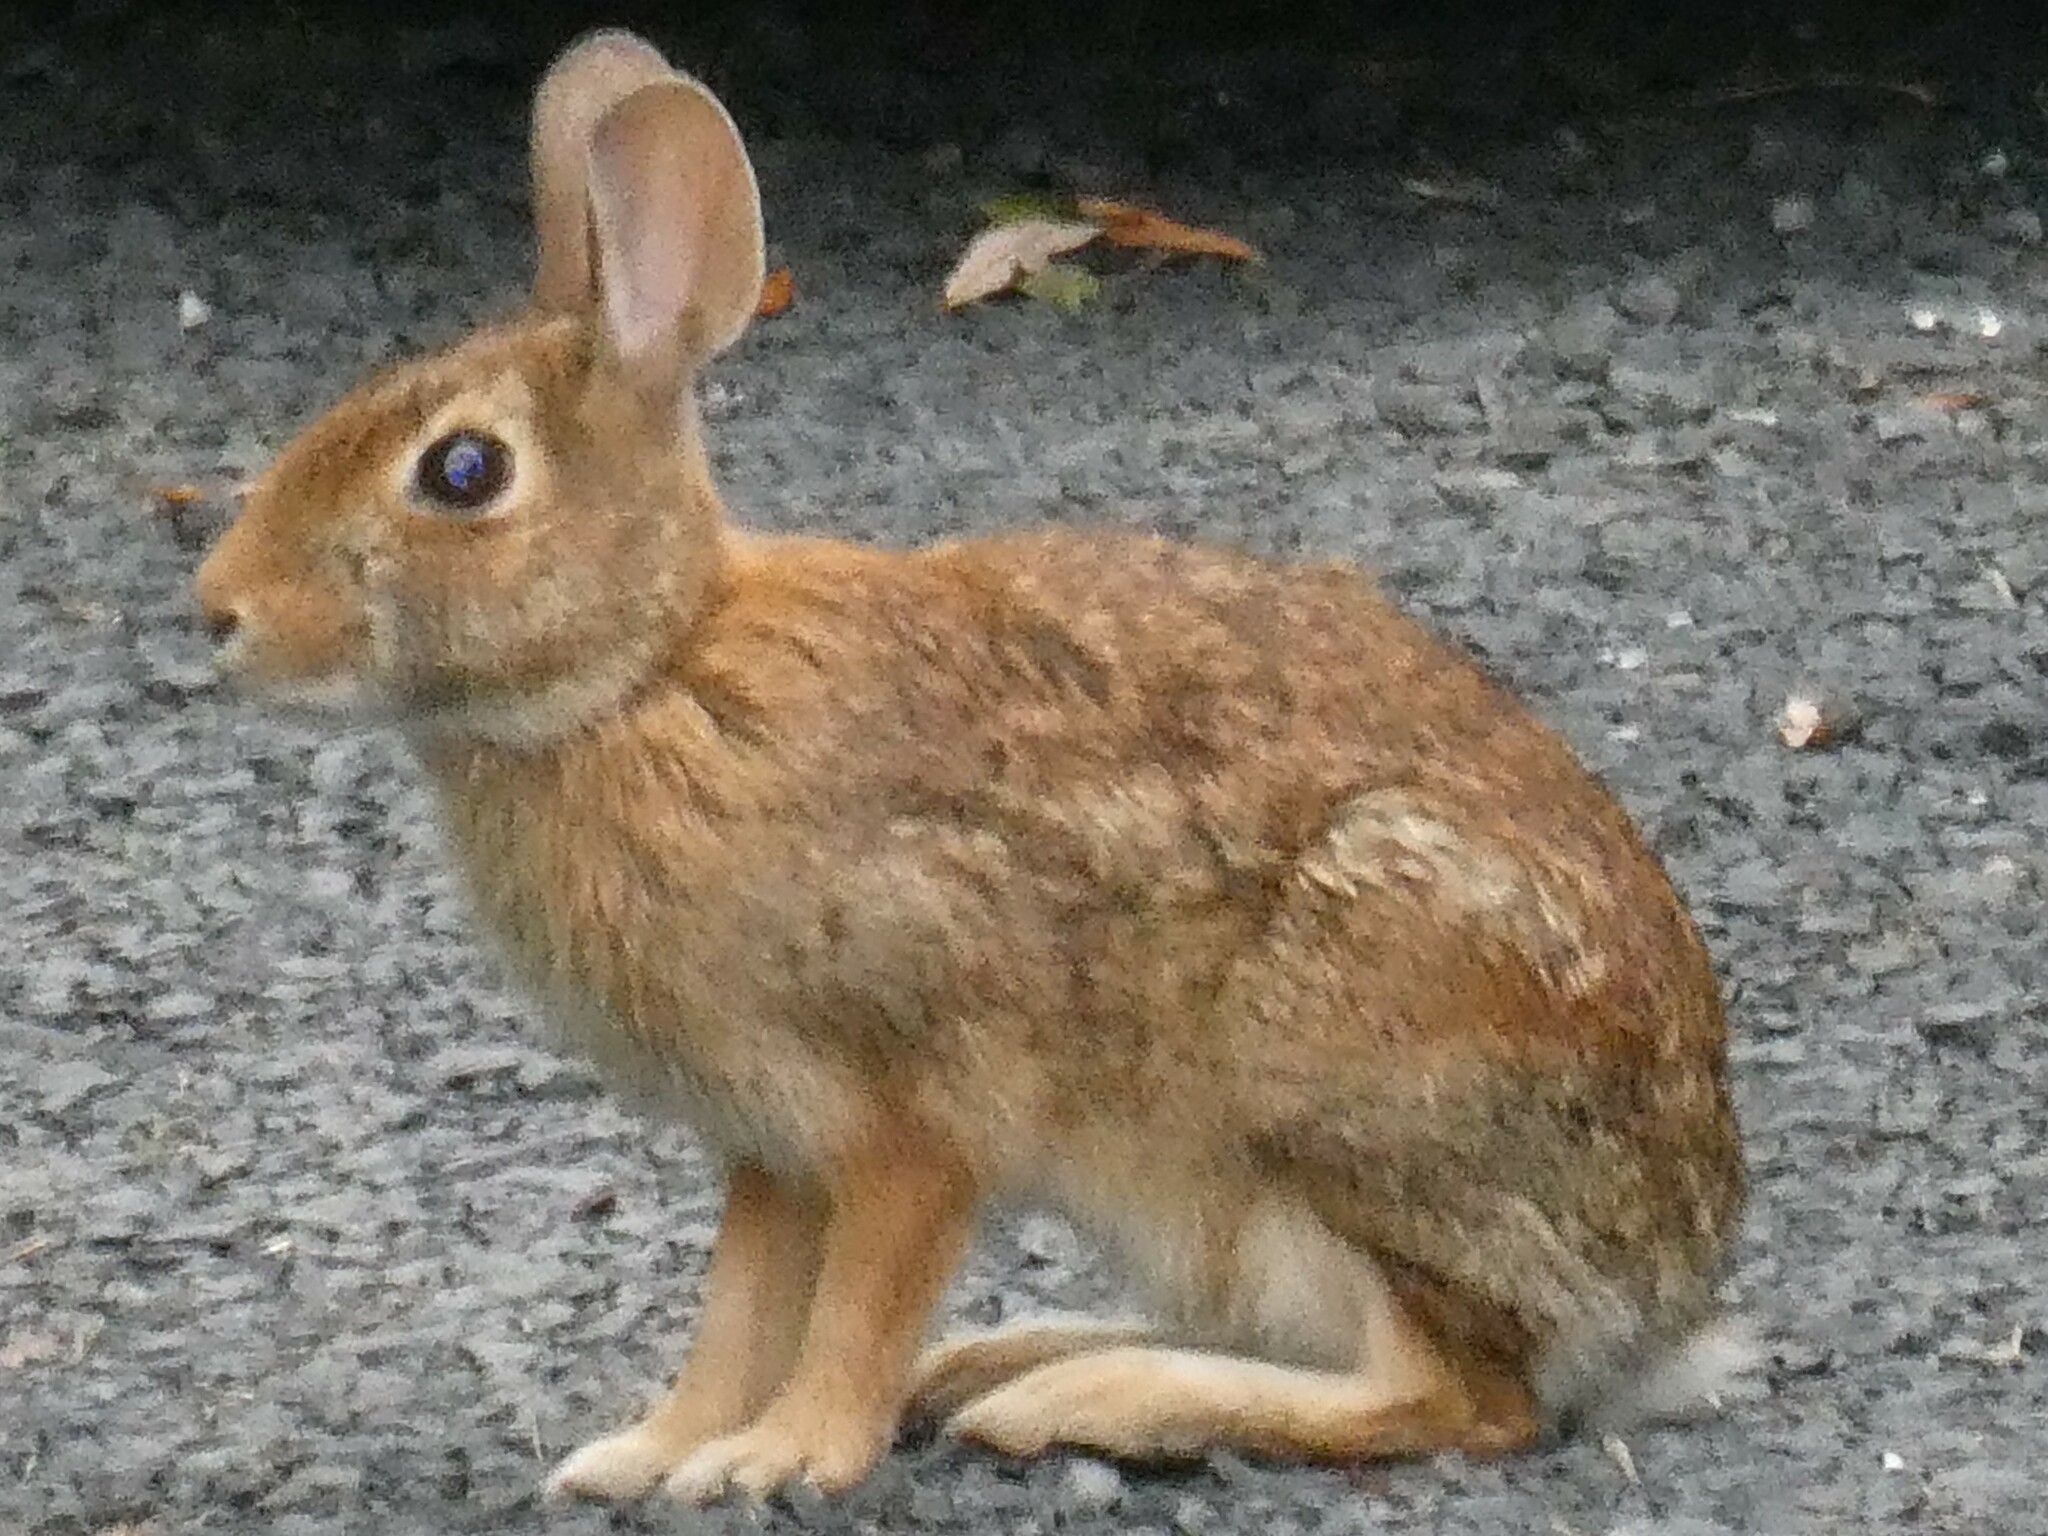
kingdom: Animalia
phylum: Chordata
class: Mammalia
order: Lagomorpha
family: Leporidae
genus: Sylvilagus
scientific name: Sylvilagus floridanus
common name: Eastern cottontail
